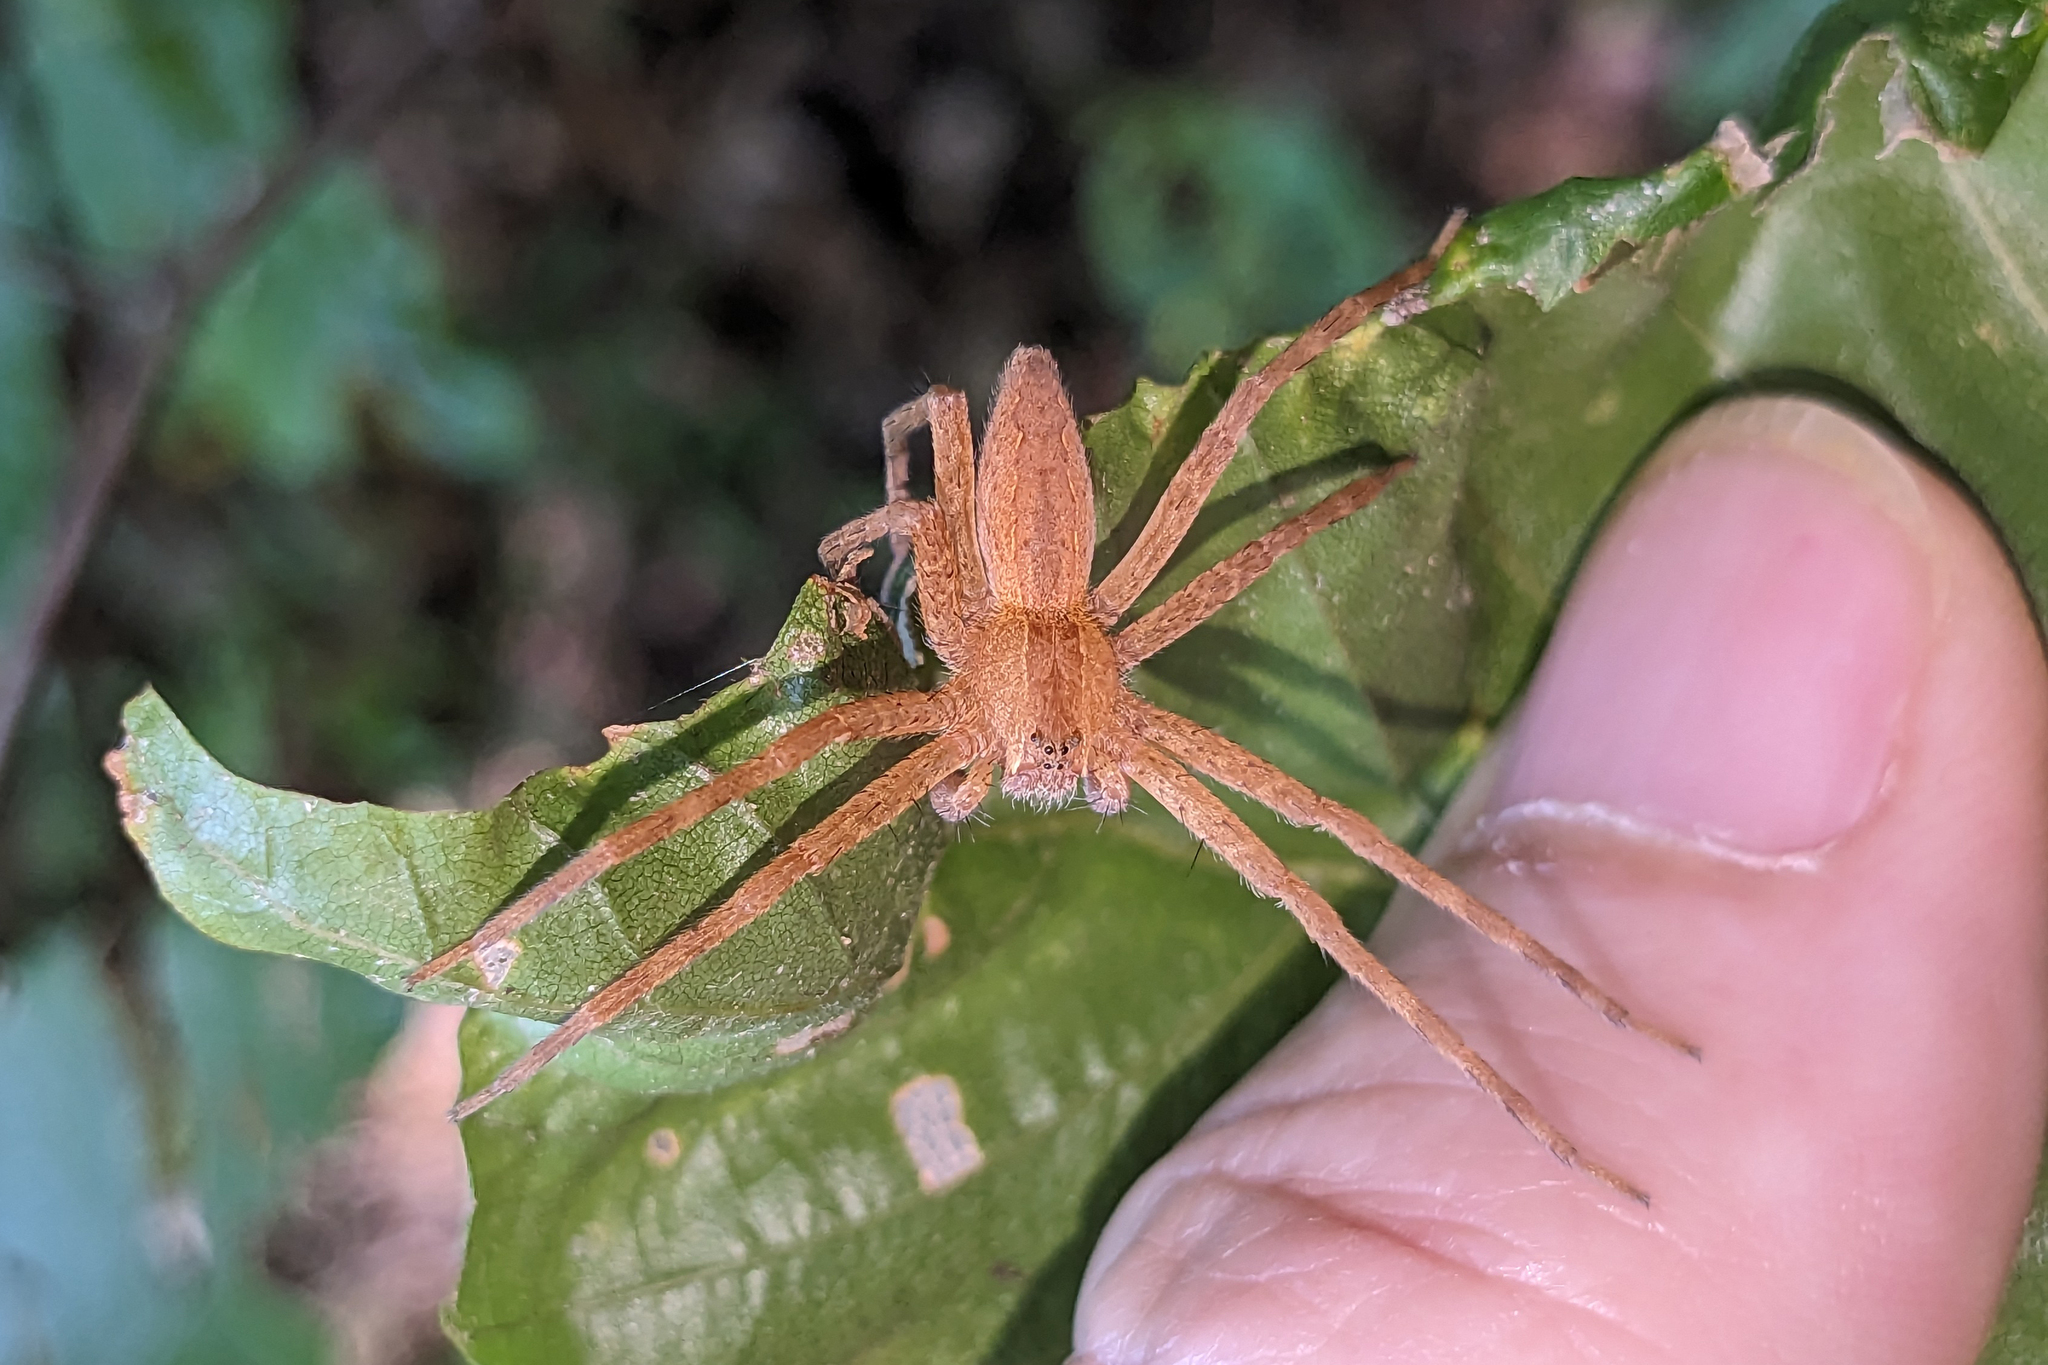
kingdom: Animalia
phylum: Arthropoda
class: Arachnida
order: Araneae
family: Pisauridae
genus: Pisaurina
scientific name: Pisaurina mira
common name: American nursery web spider
